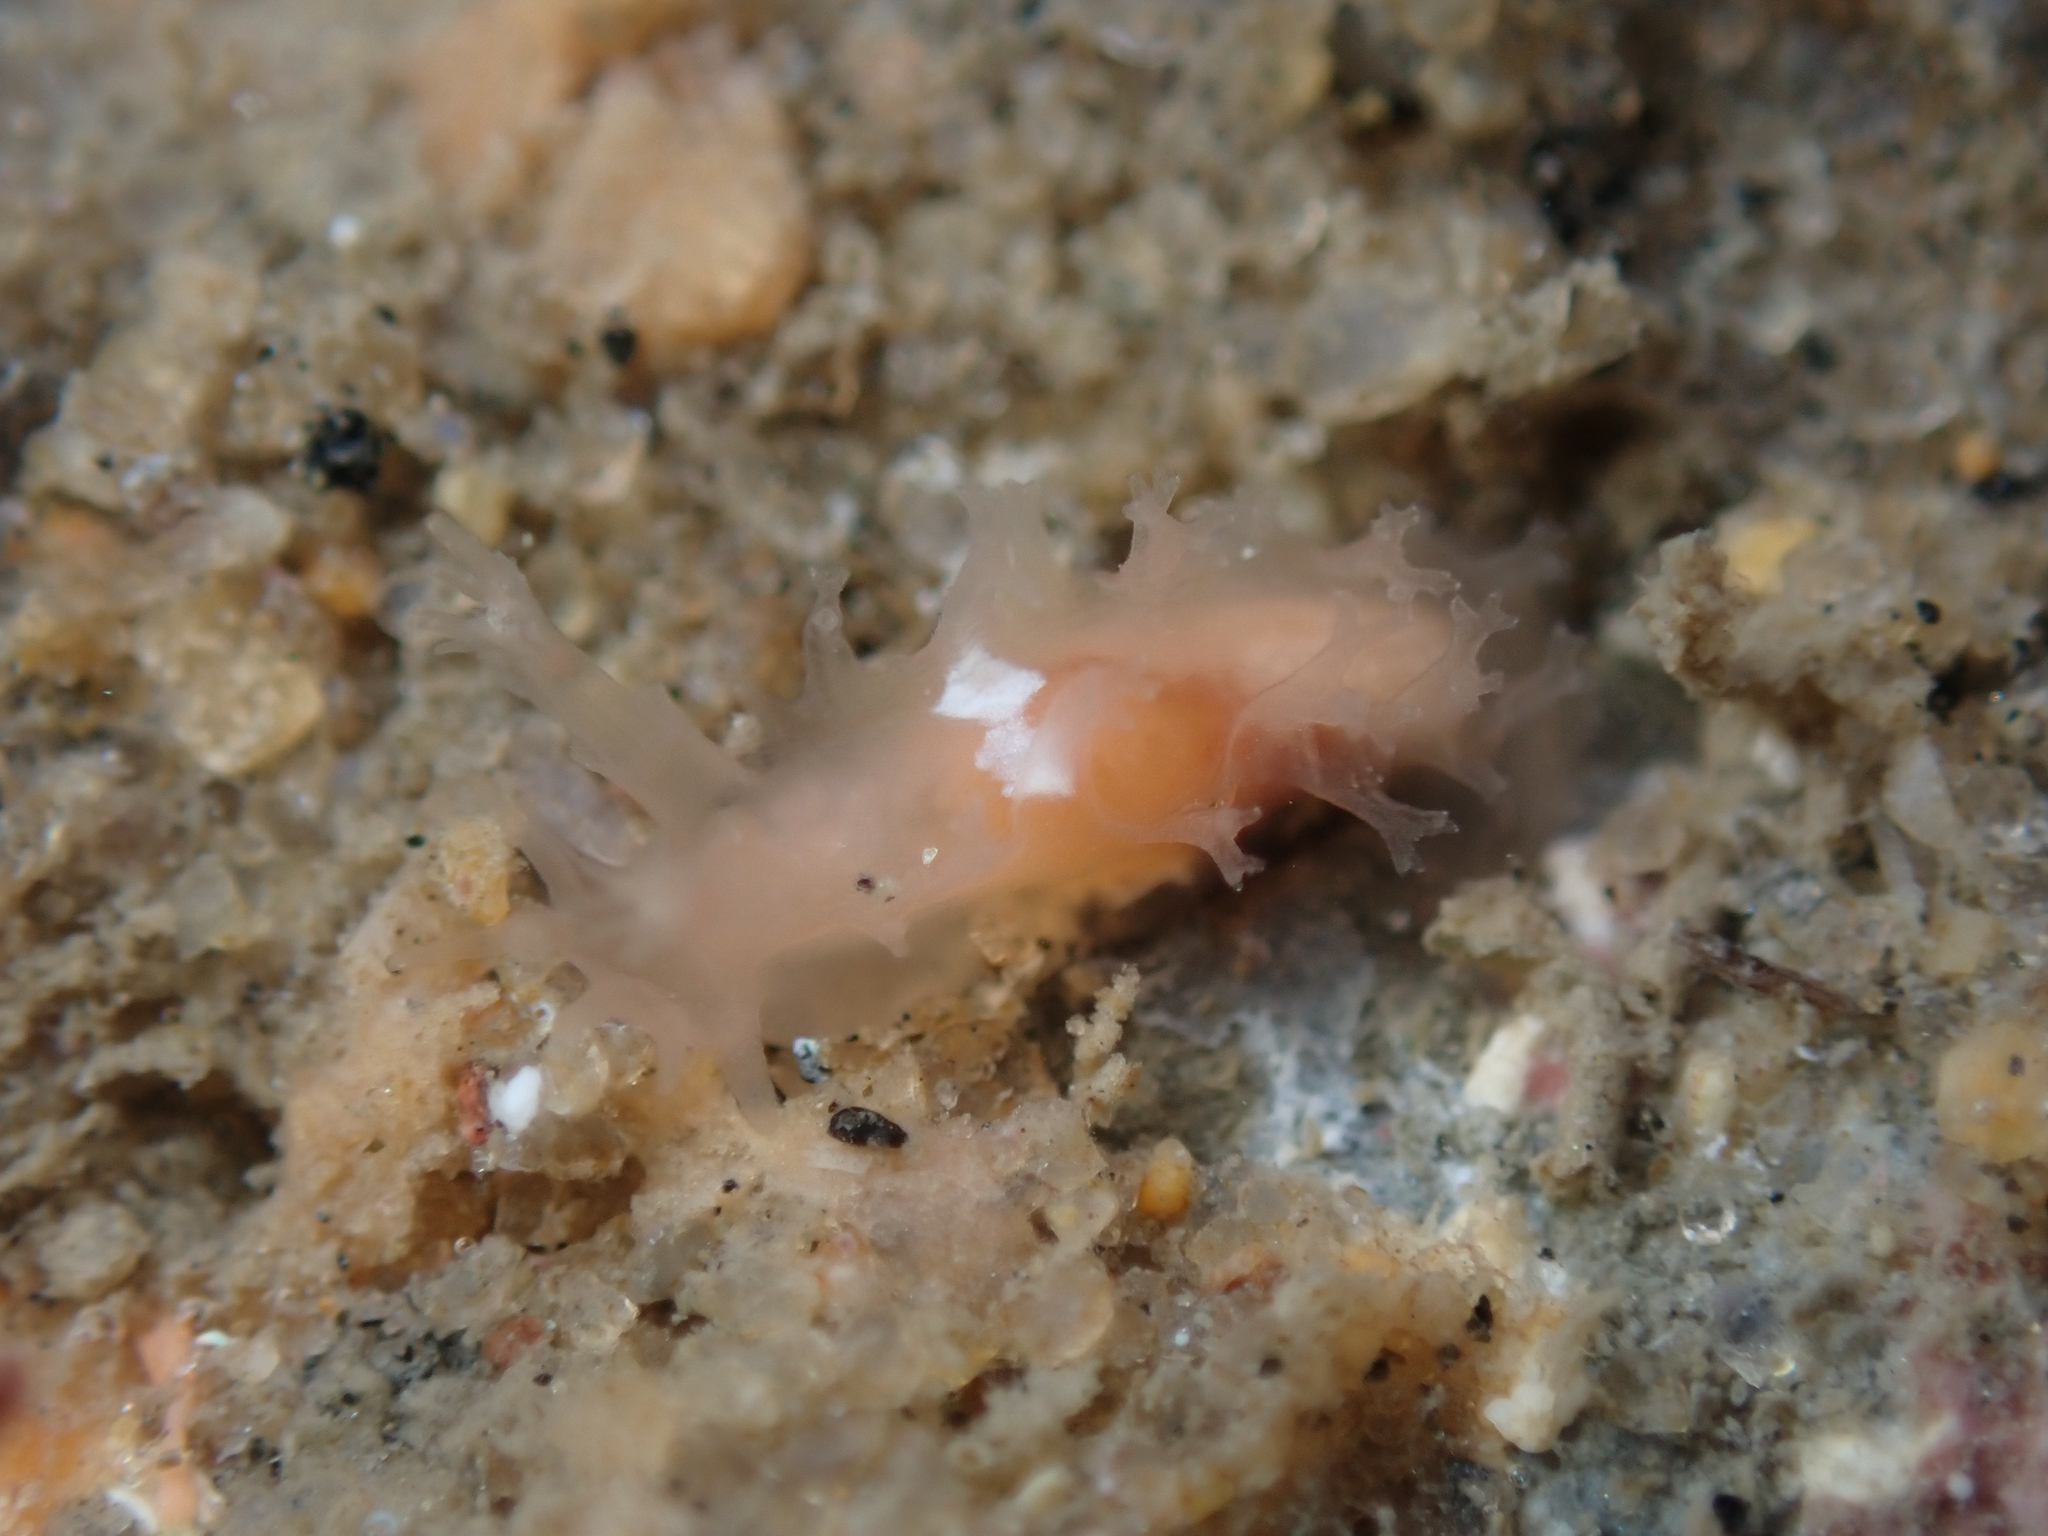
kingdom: Animalia
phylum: Mollusca
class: Gastropoda
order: Nudibranchia
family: Tritoniidae
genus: Tritonicula
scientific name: Tritonicula myrakeenae
